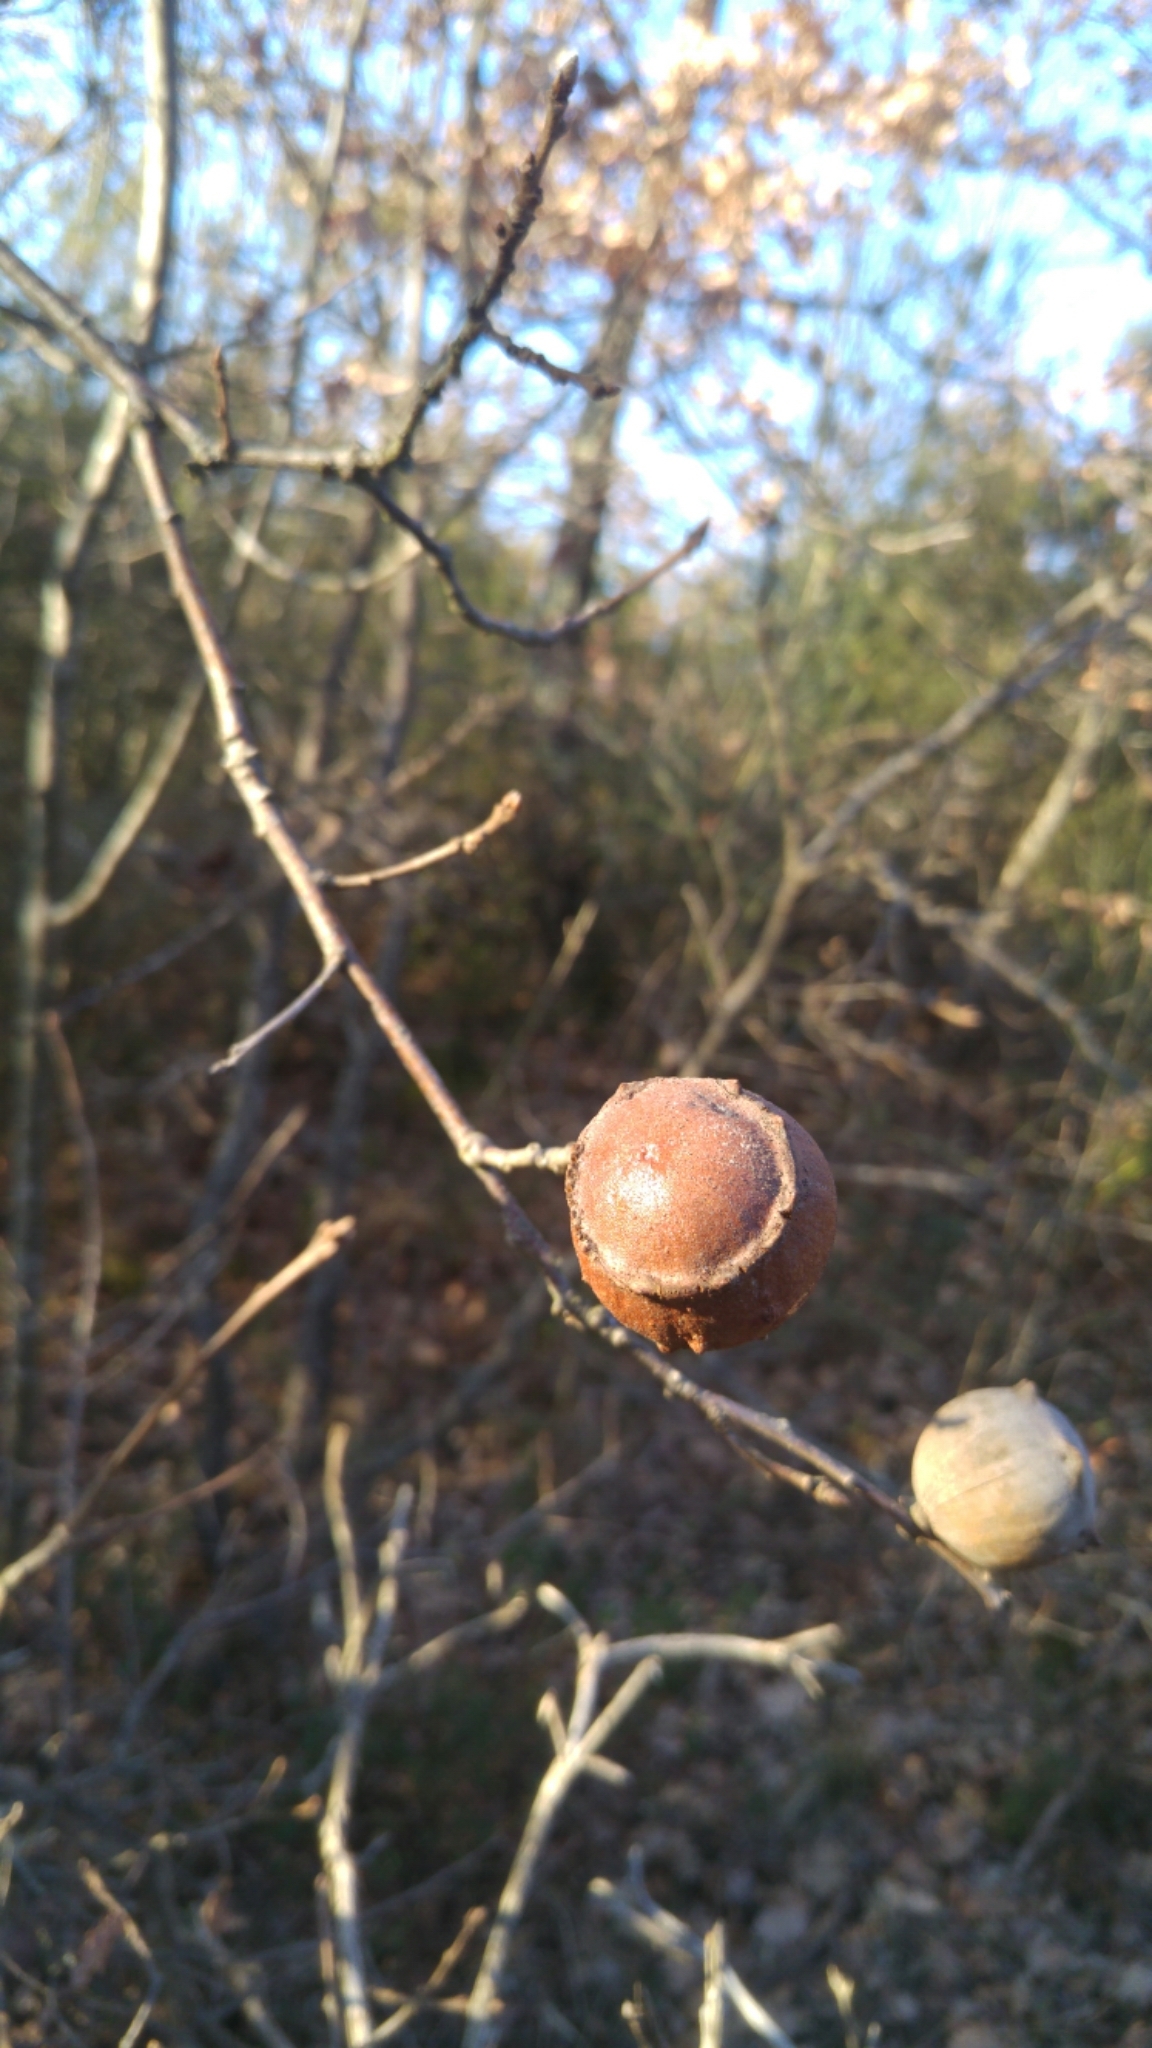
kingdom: Animalia
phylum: Arthropoda
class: Insecta
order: Hymenoptera
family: Cynipidae
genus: Andricus
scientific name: Andricus quercustozae
